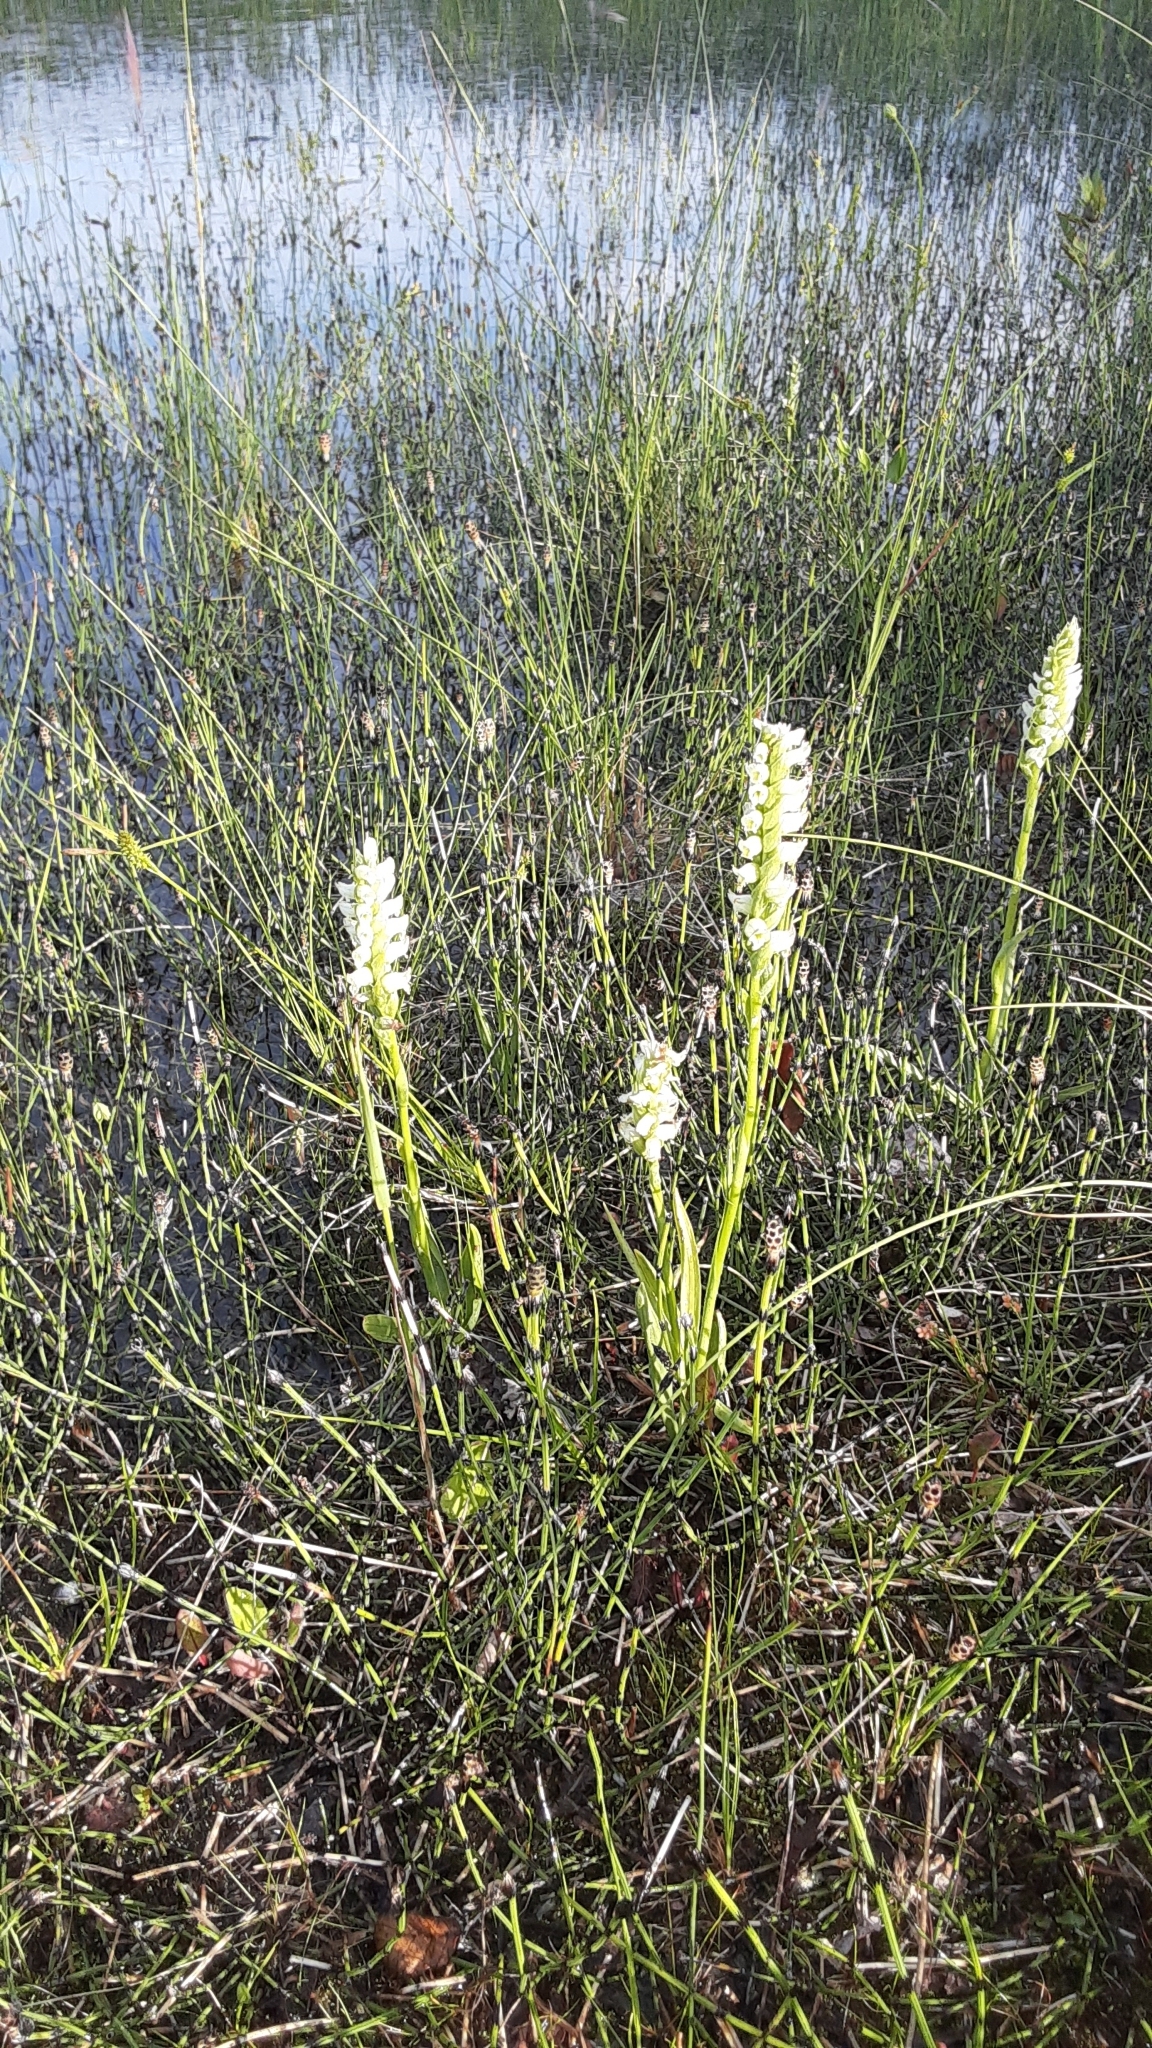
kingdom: Plantae
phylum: Tracheophyta
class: Liliopsida
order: Asparagales
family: Orchidaceae
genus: Spiranthes
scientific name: Spiranthes romanzoffiana
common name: Irish lady's-tresses
